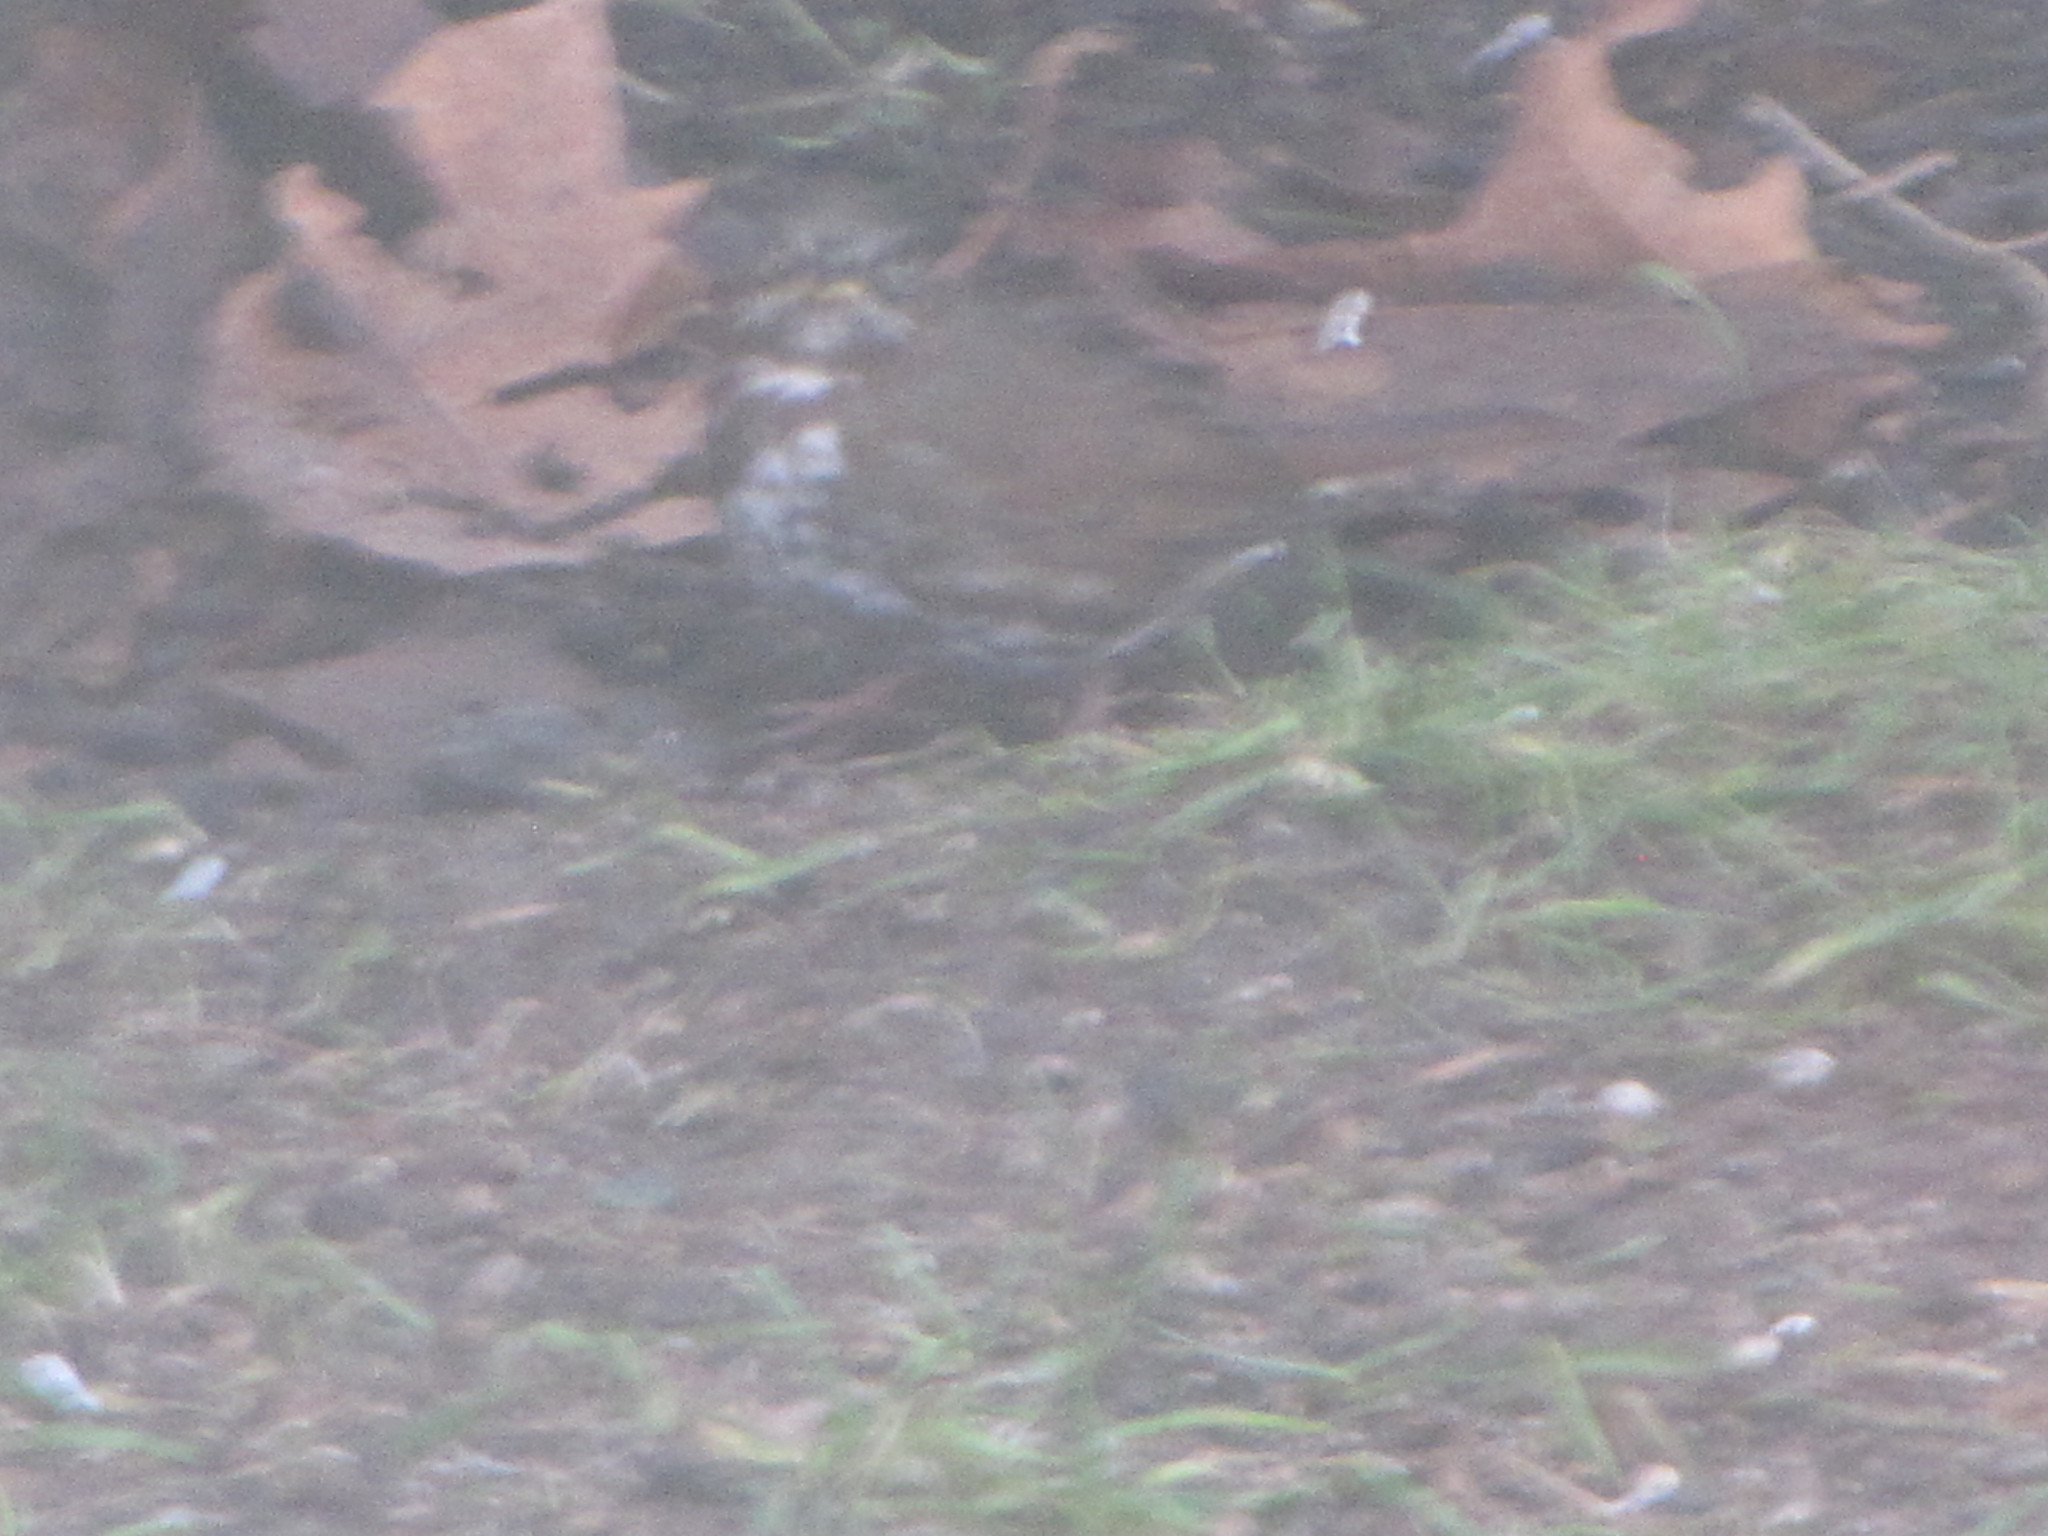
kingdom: Animalia
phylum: Chordata
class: Aves
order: Passeriformes
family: Passerellidae
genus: Passerella
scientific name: Passerella iliaca
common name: Fox sparrow
